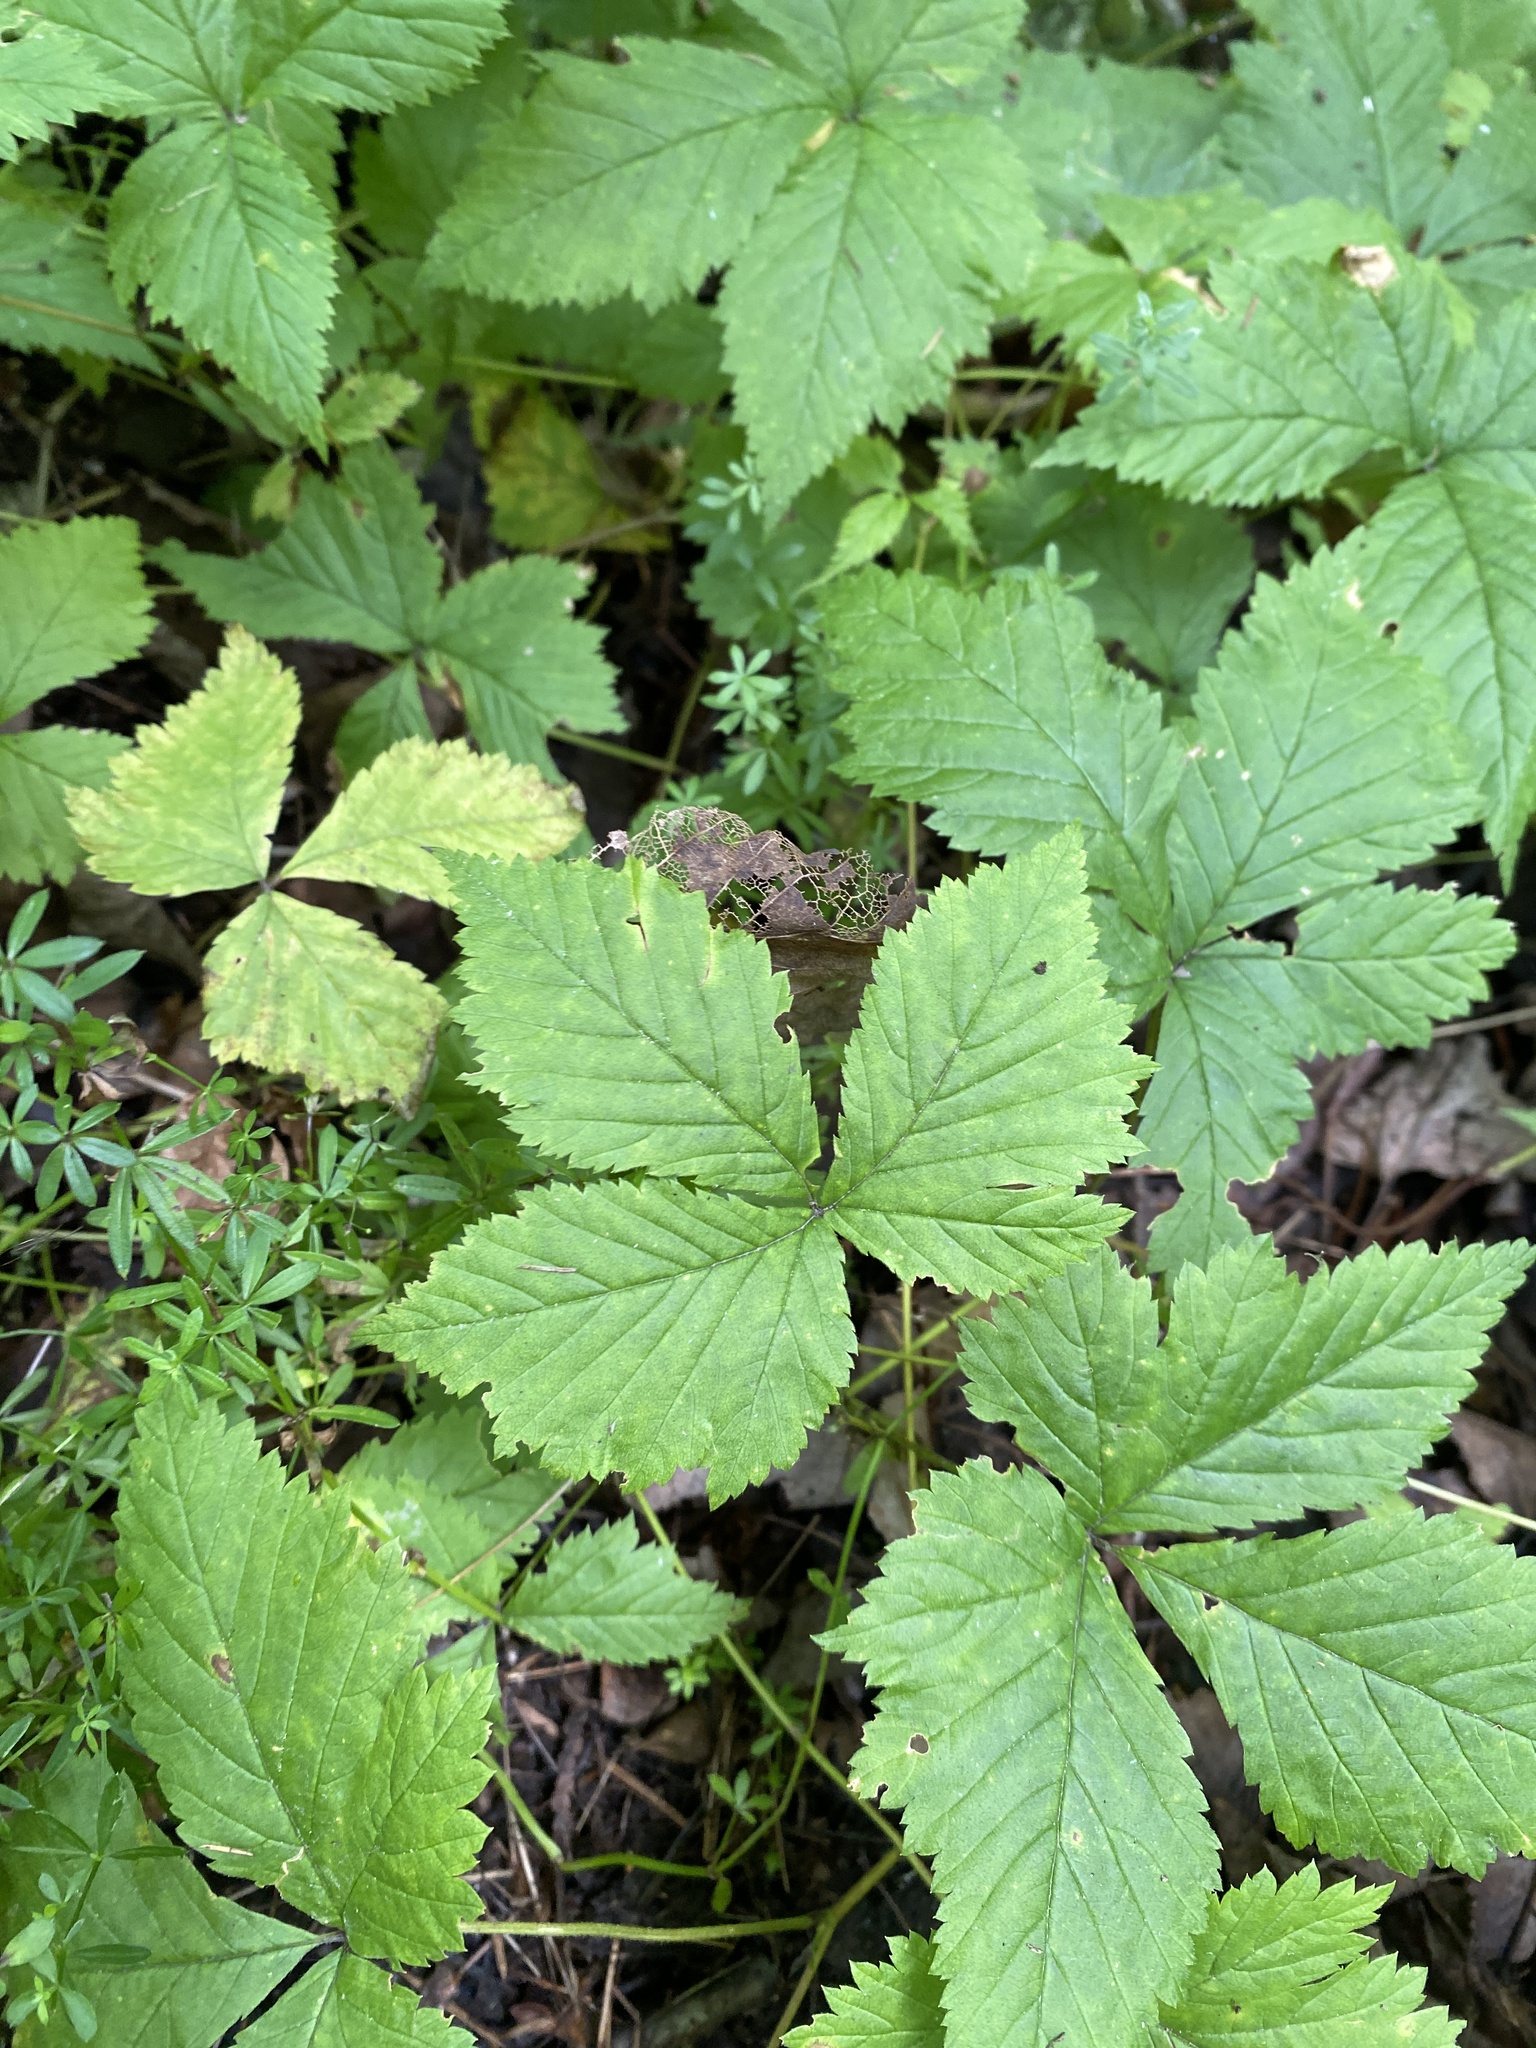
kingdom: Plantae
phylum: Tracheophyta
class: Magnoliopsida
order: Rosales
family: Rosaceae
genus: Rubus
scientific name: Rubus pubescens
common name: Dwarf raspberry
